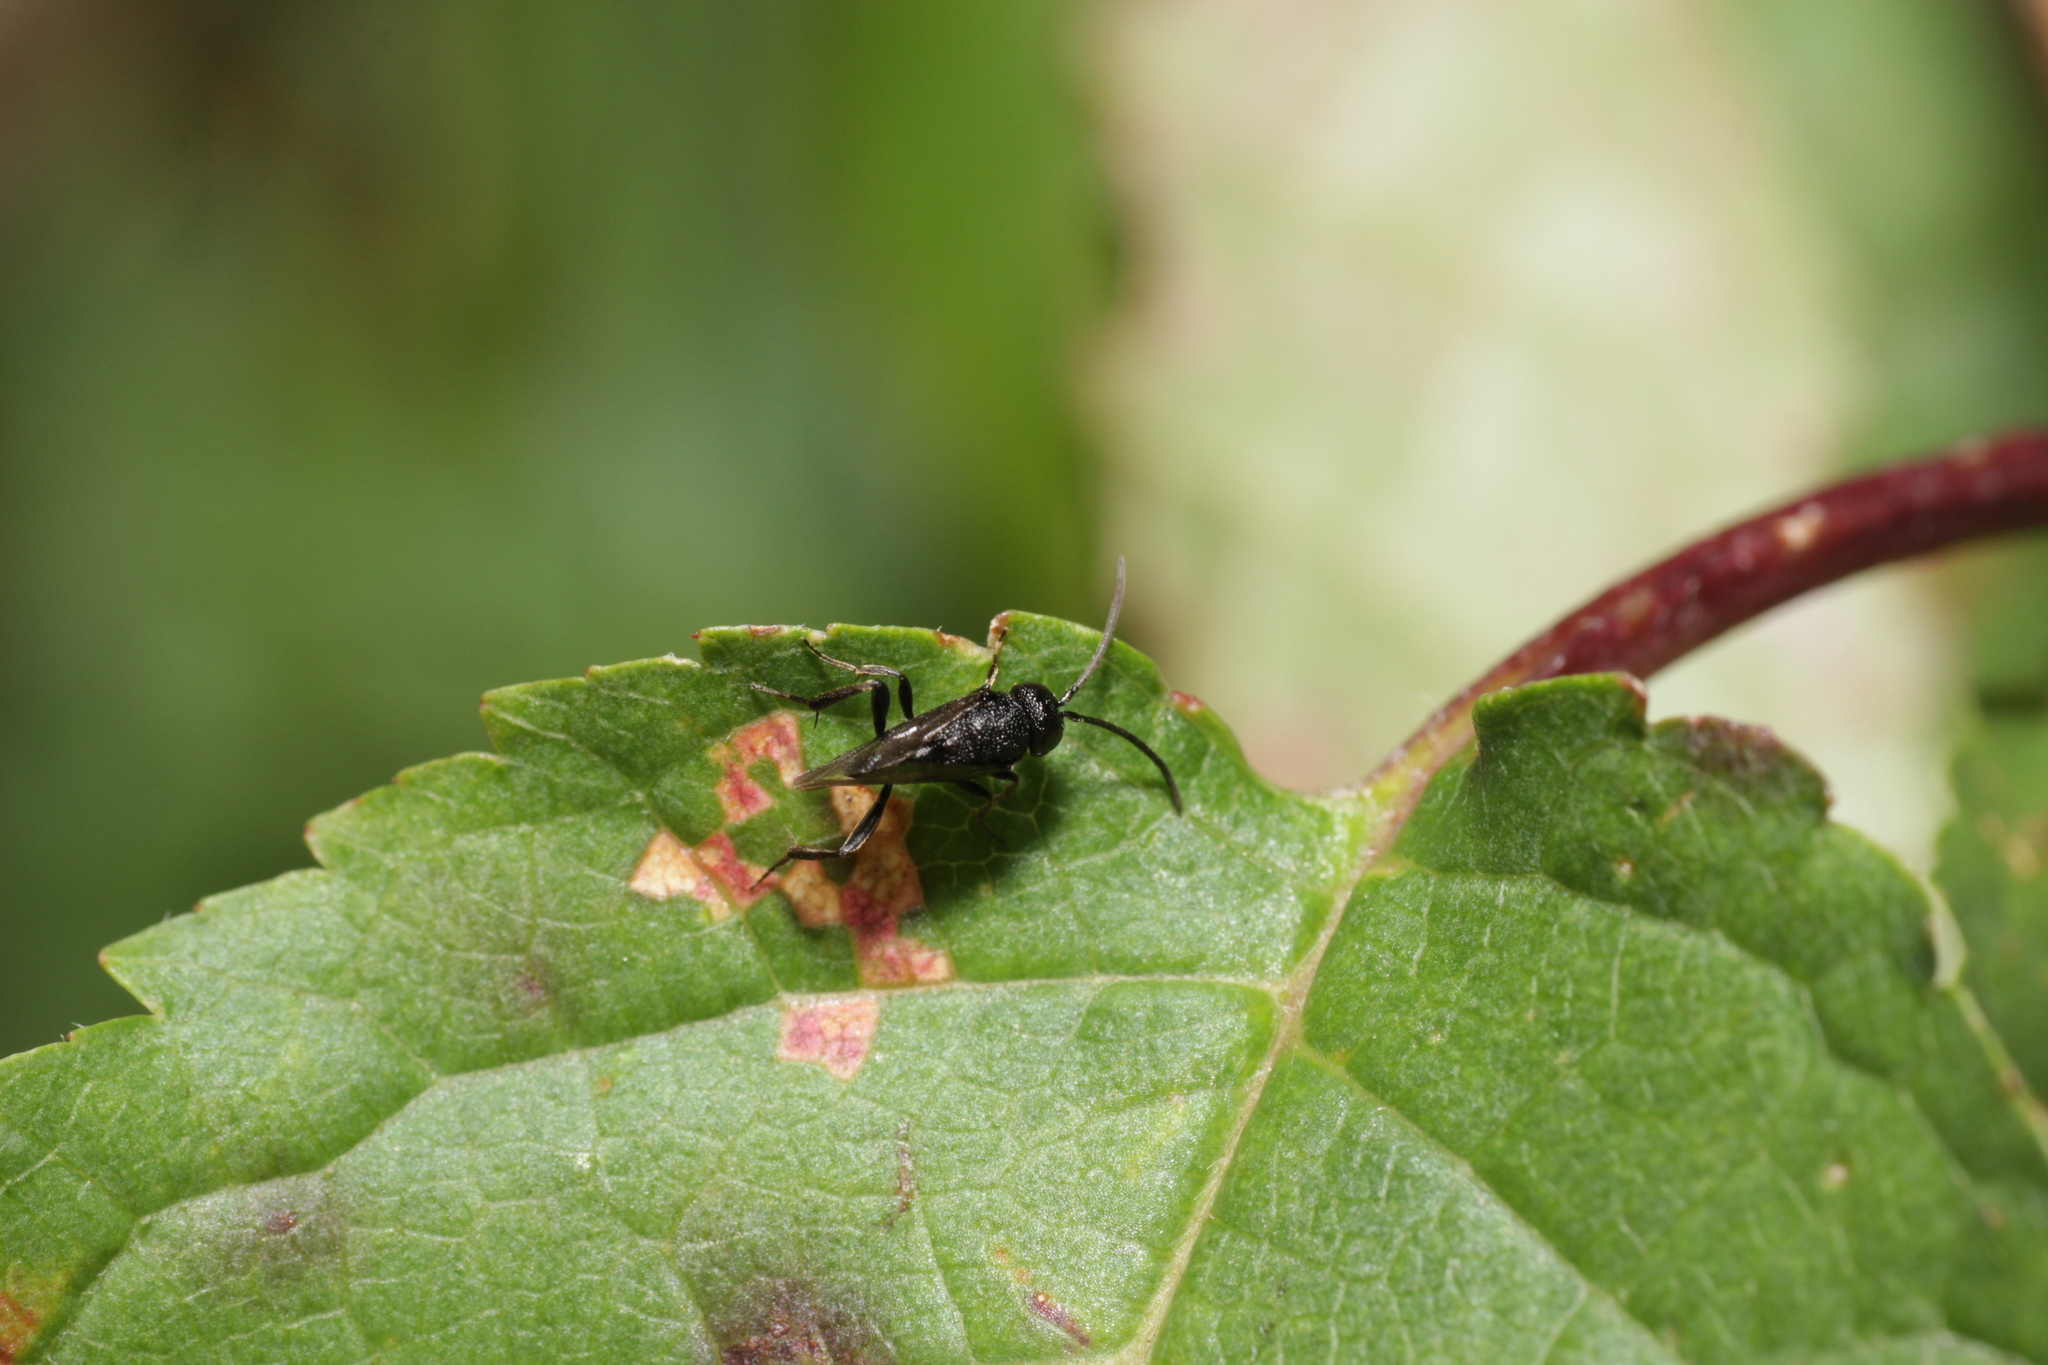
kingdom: Animalia
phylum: Arthropoda
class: Insecta
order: Hymenoptera
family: Evaniidae
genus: Brachygaster
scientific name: Brachygaster minutus
